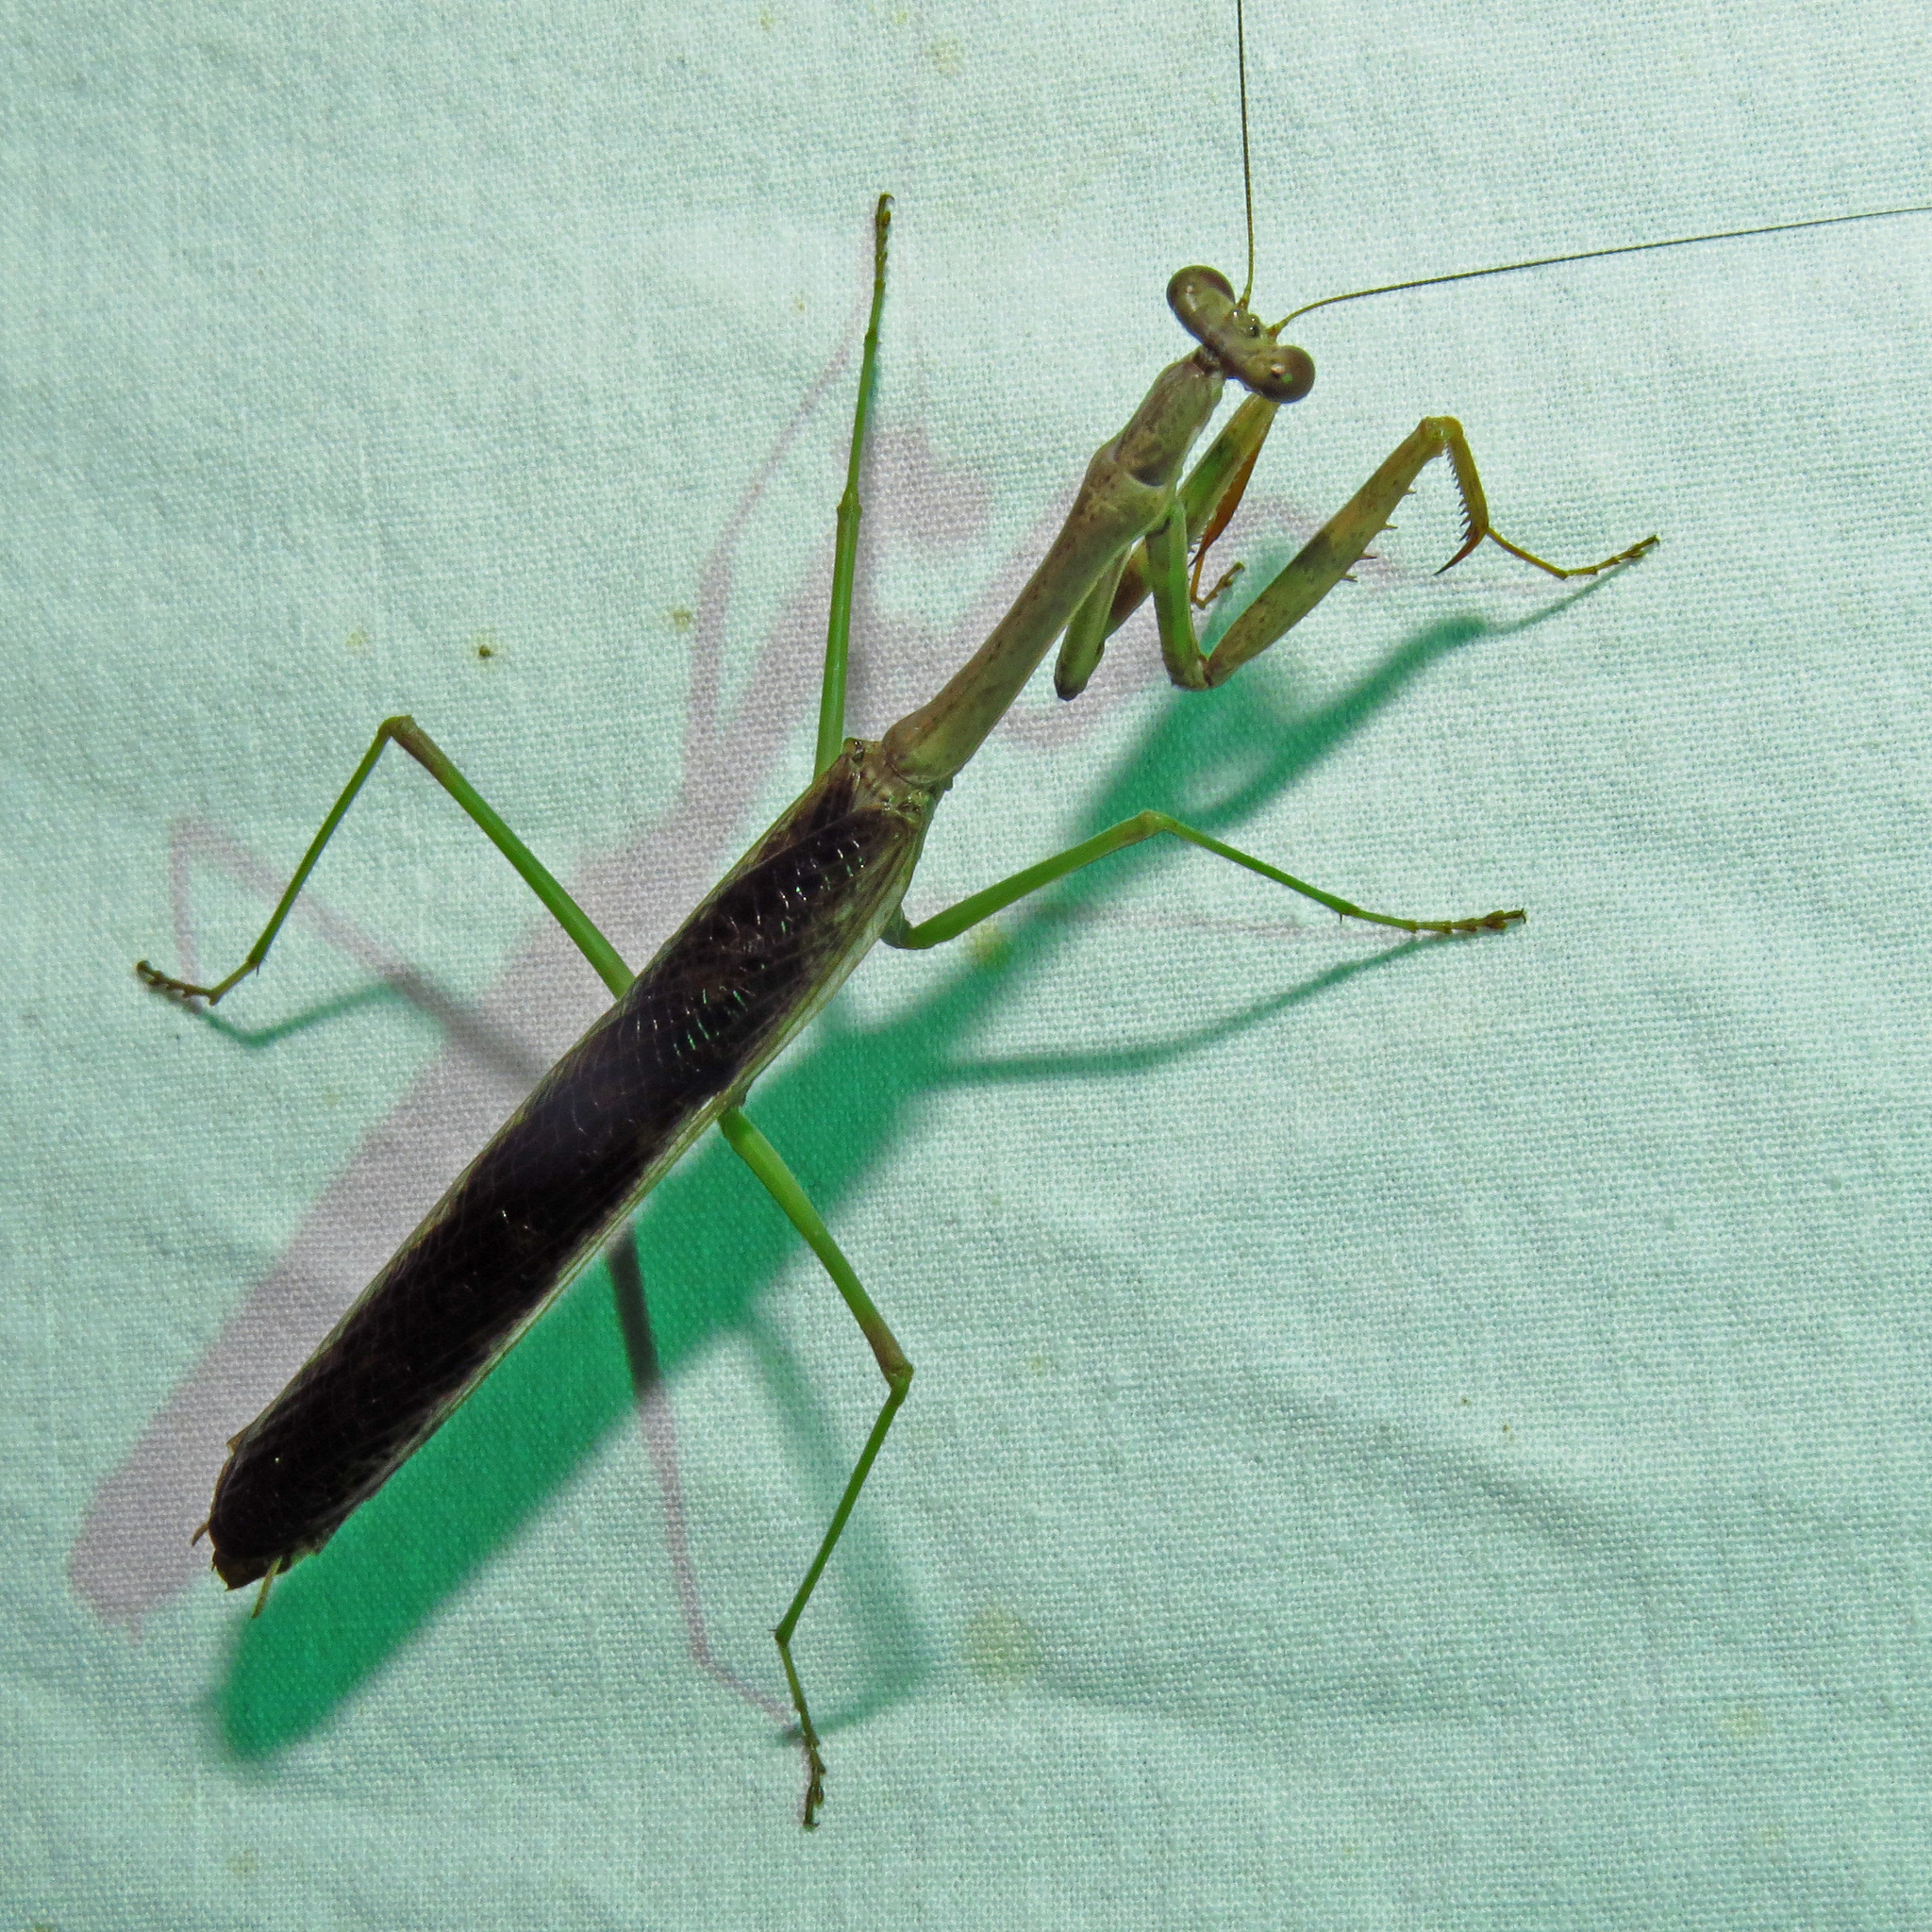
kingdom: Animalia
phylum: Arthropoda
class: Insecta
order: Mantodea
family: Mantidae
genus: Stagmomantis
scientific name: Stagmomantis carolina
